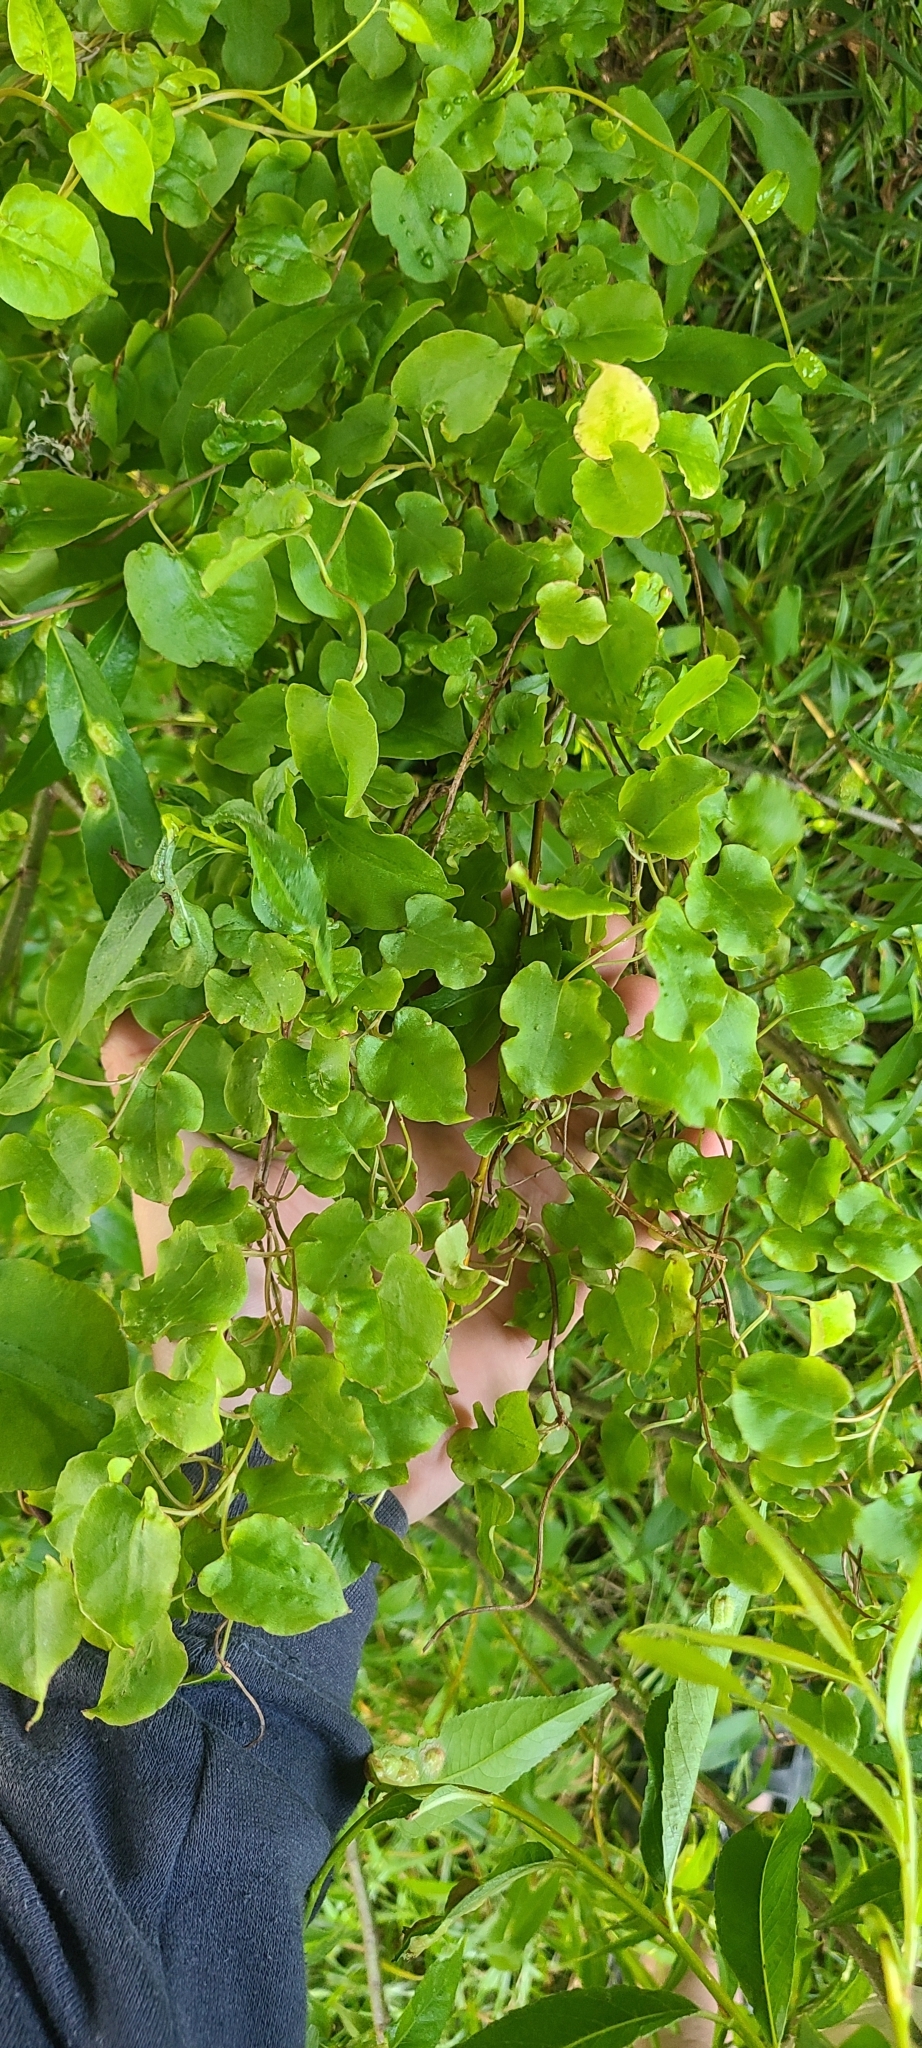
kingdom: Plantae
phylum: Tracheophyta
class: Magnoliopsida
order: Caryophyllales
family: Polygonaceae
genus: Muehlenbeckia
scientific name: Muehlenbeckia australis
